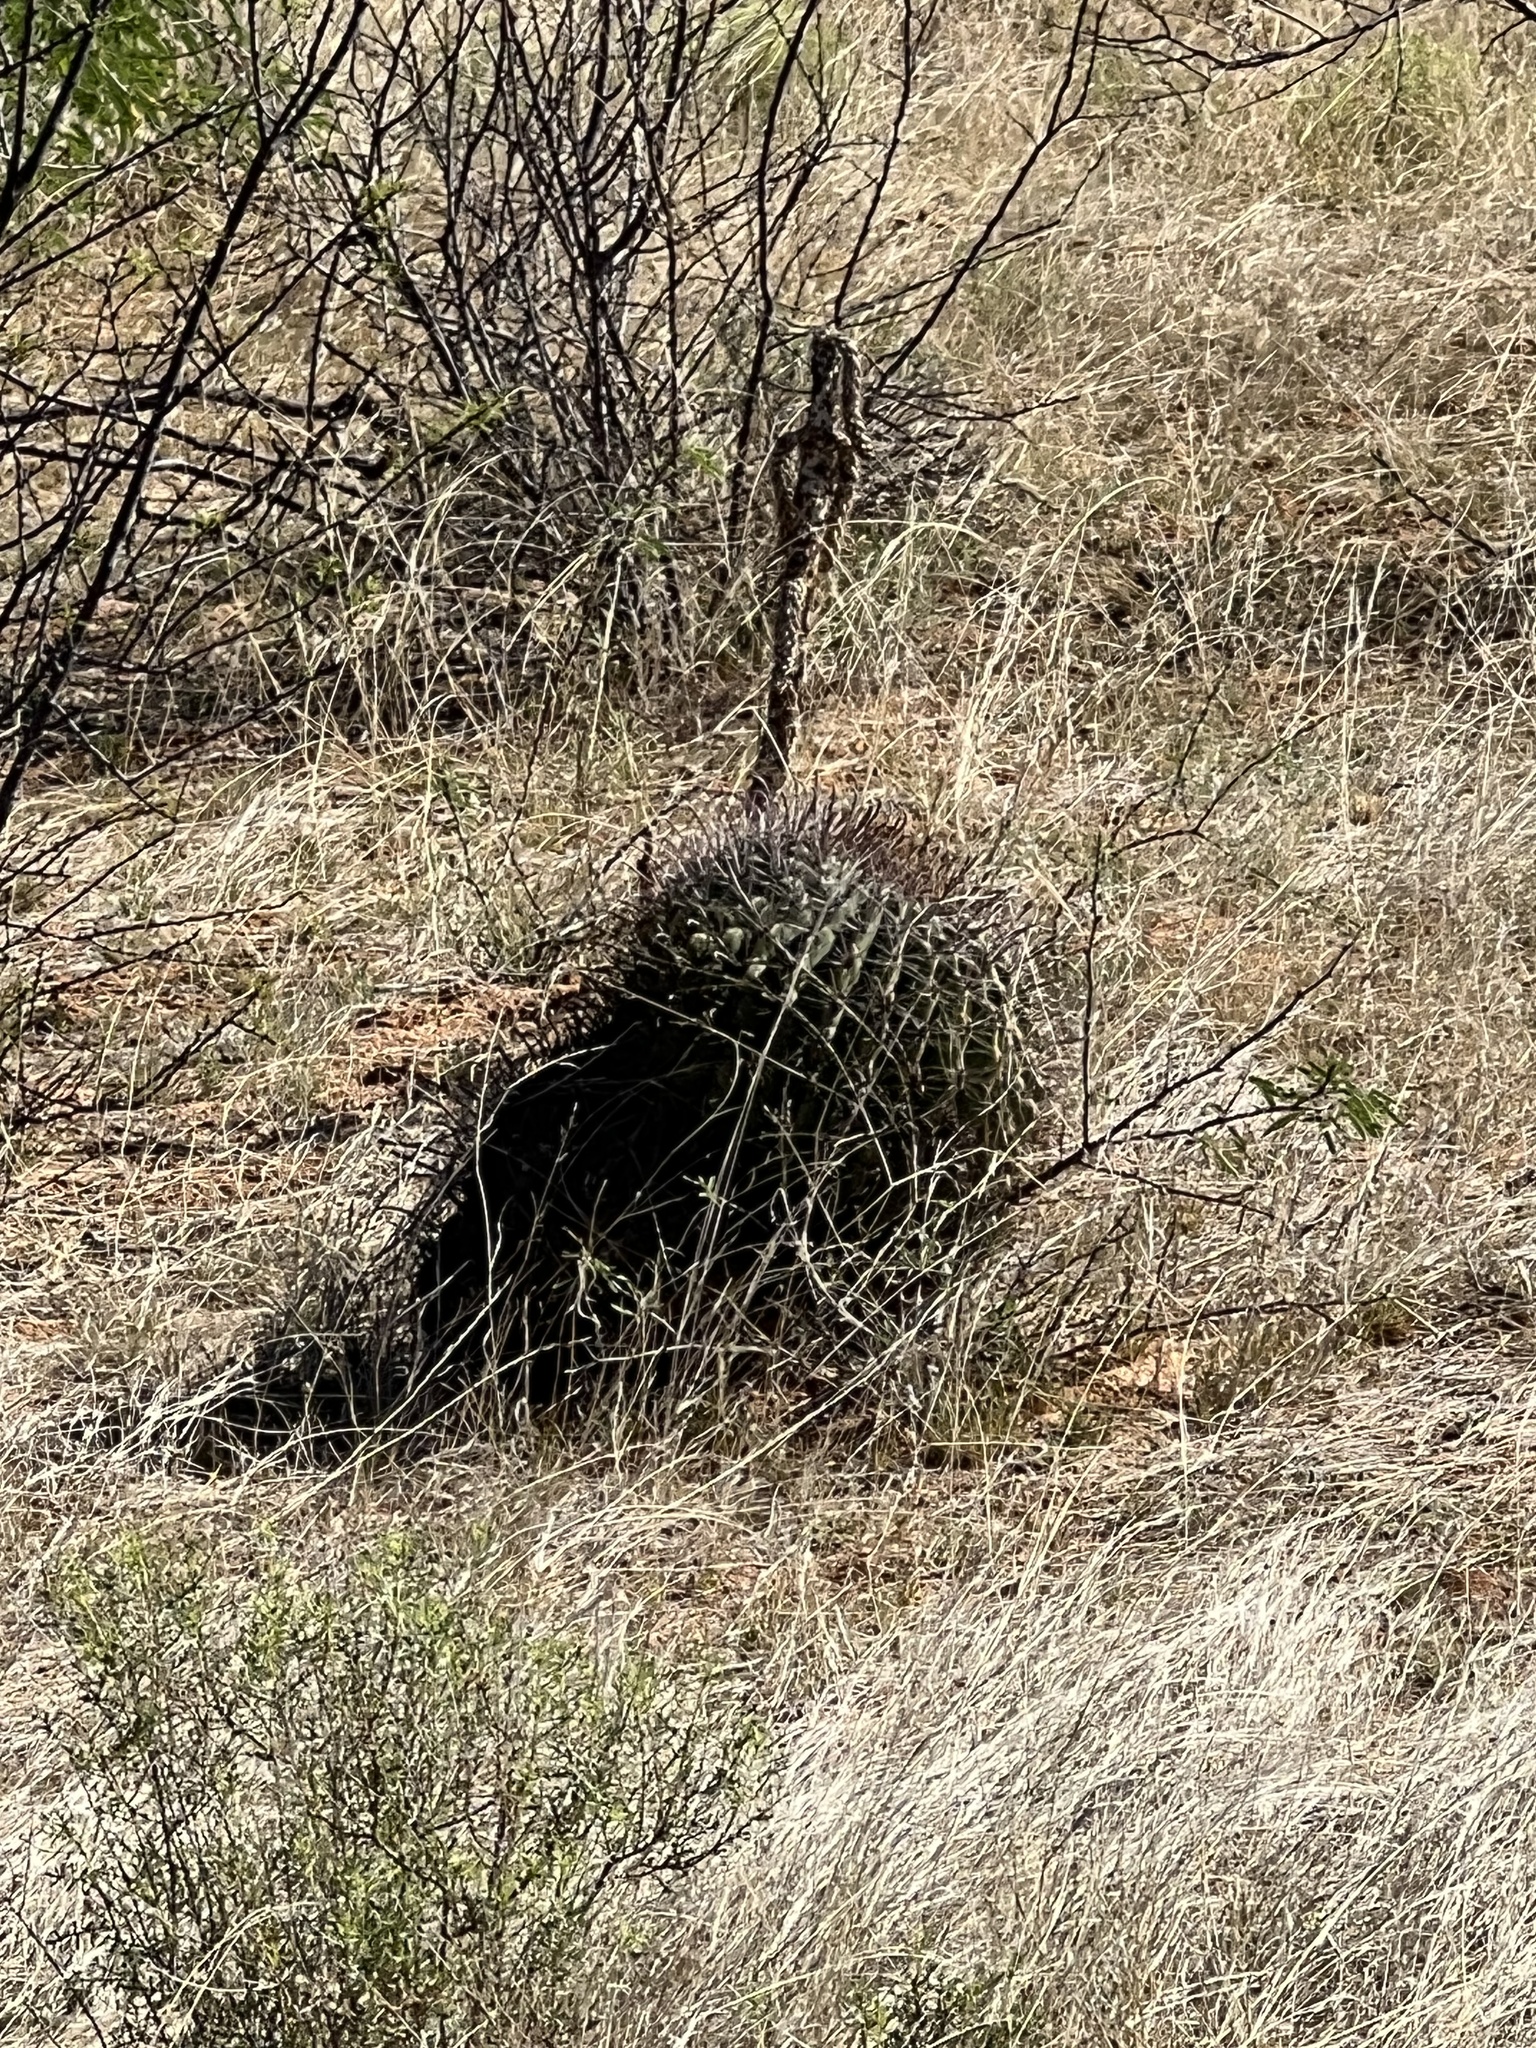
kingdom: Plantae
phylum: Tracheophyta
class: Magnoliopsida
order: Caryophyllales
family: Cactaceae
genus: Ferocactus
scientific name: Ferocactus wislizeni
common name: Candy barrel cactus
